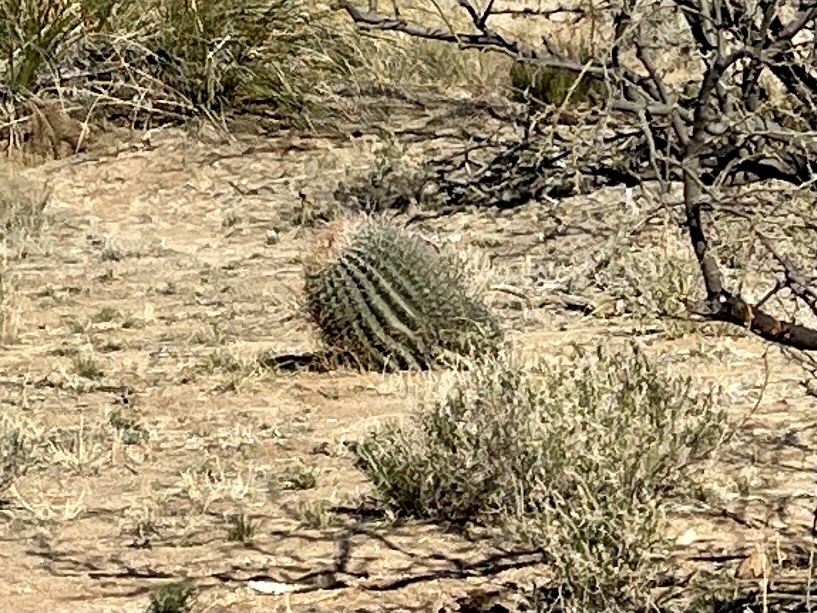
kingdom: Plantae
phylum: Tracheophyta
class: Magnoliopsida
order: Caryophyllales
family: Cactaceae
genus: Ferocactus
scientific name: Ferocactus wislizeni
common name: Candy barrel cactus
